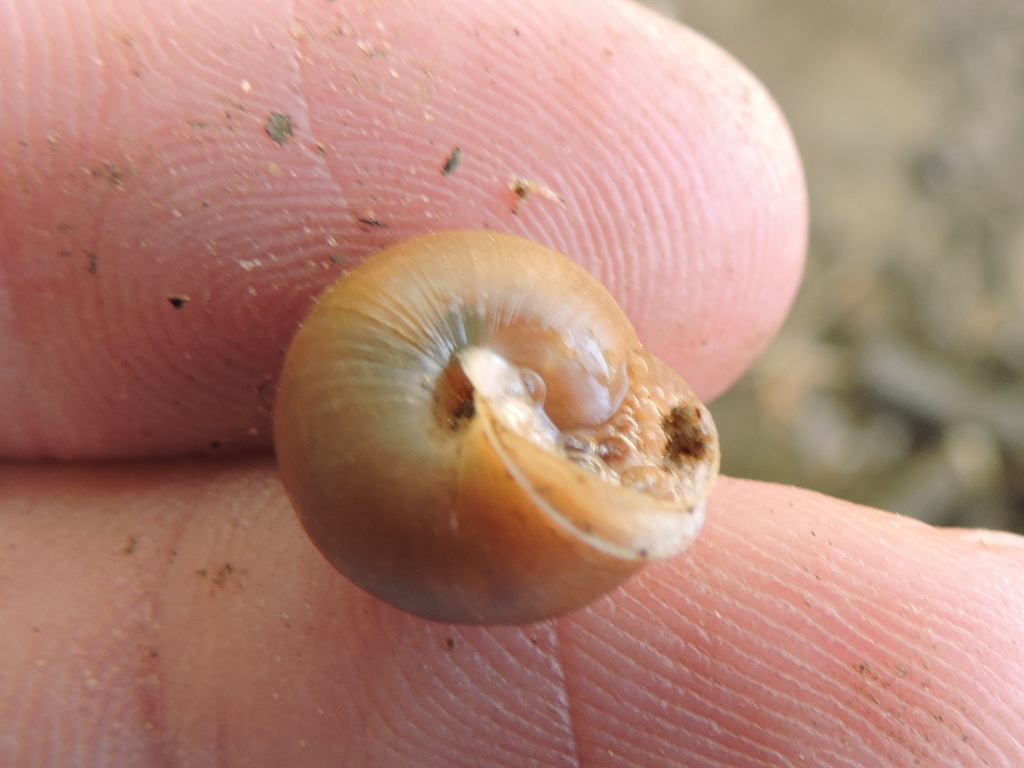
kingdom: Animalia
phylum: Mollusca
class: Gastropoda
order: Stylommatophora
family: Camaenidae
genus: Bradybaena
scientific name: Bradybaena similaris
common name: Asian trampsnail
